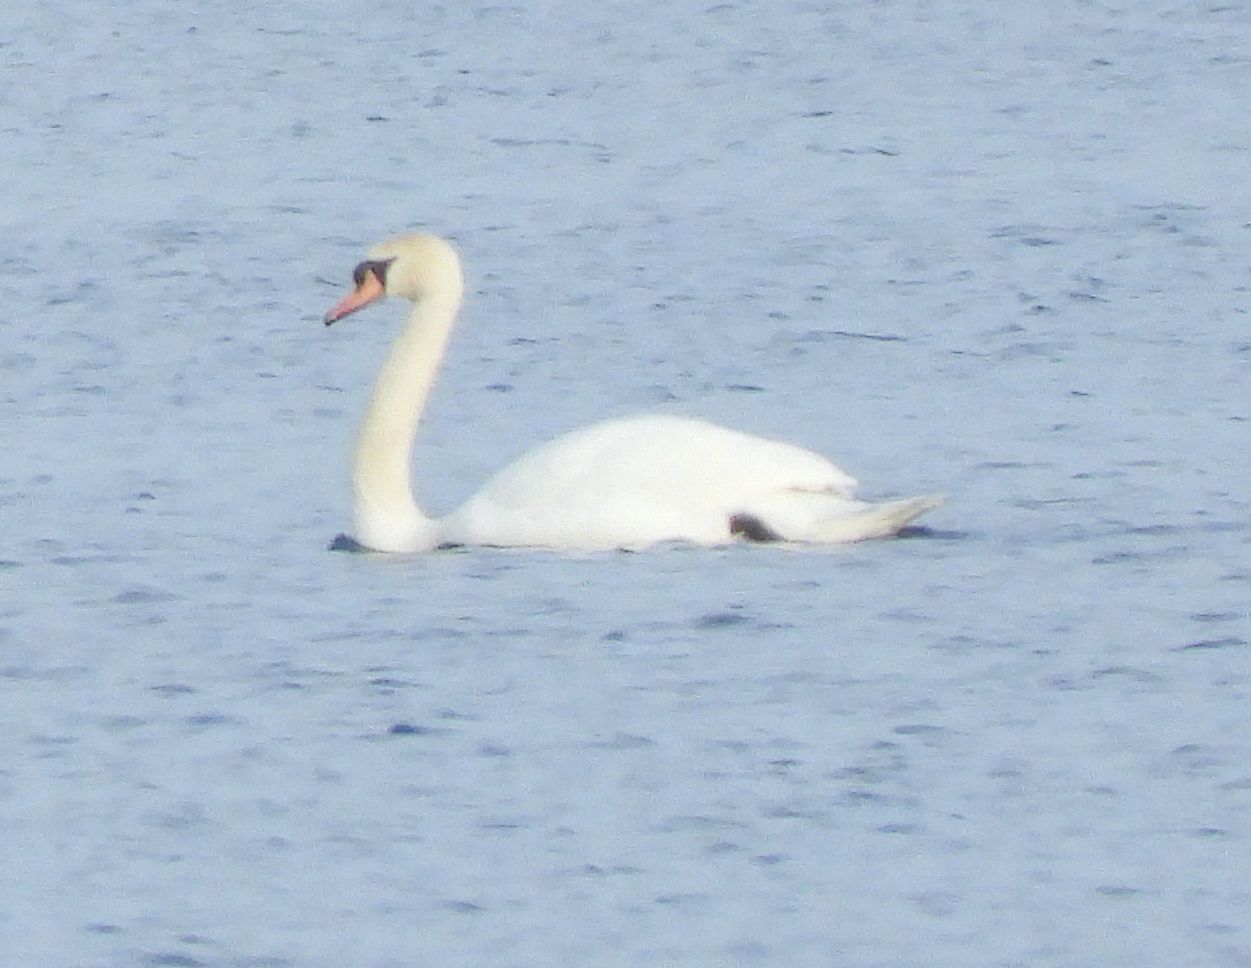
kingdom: Animalia
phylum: Chordata
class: Aves
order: Anseriformes
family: Anatidae
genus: Cygnus
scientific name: Cygnus olor
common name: Mute swan
